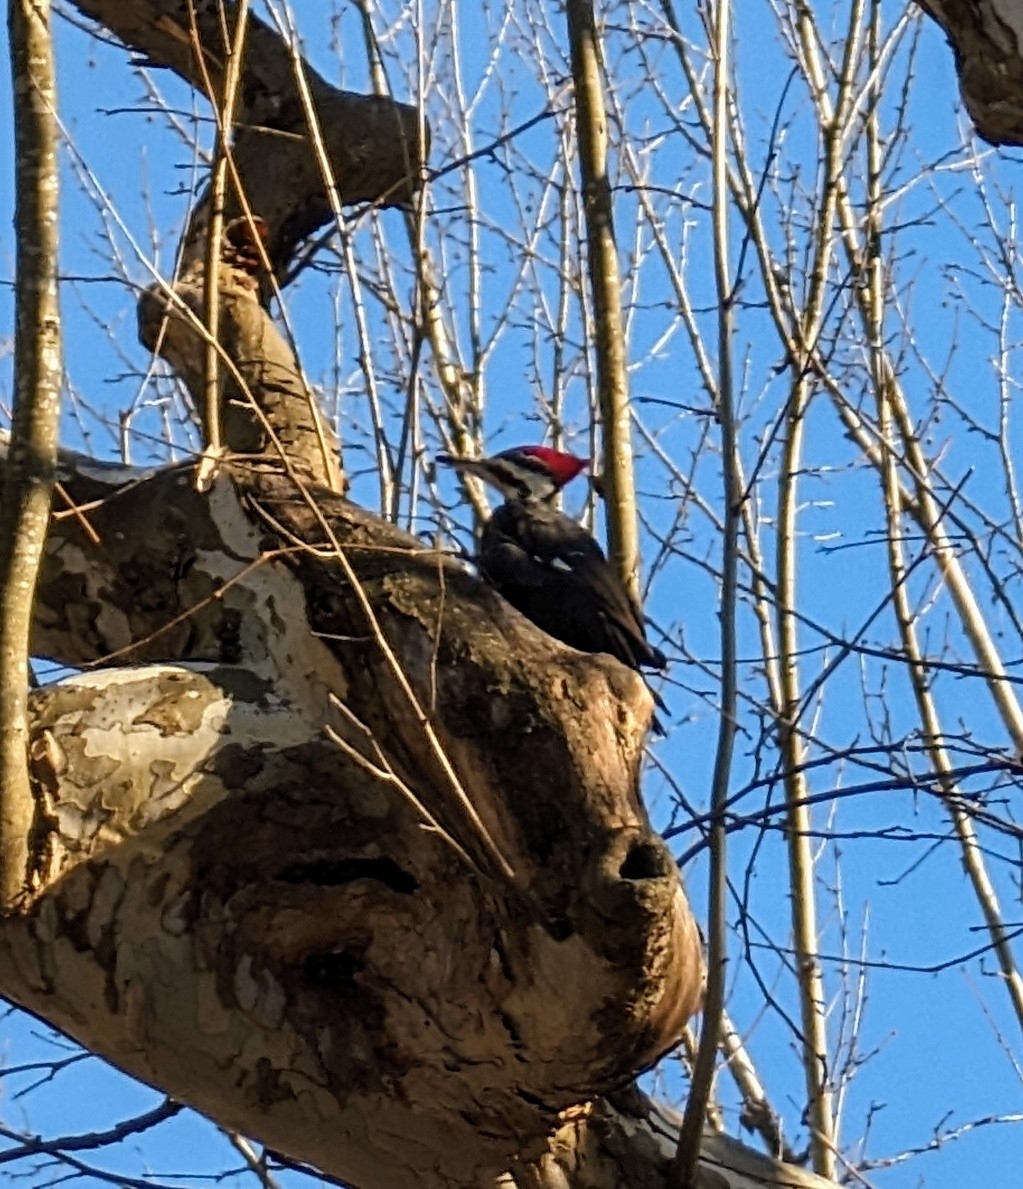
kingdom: Animalia
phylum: Chordata
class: Aves
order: Piciformes
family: Picidae
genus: Dryocopus
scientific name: Dryocopus pileatus
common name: Pileated woodpecker
